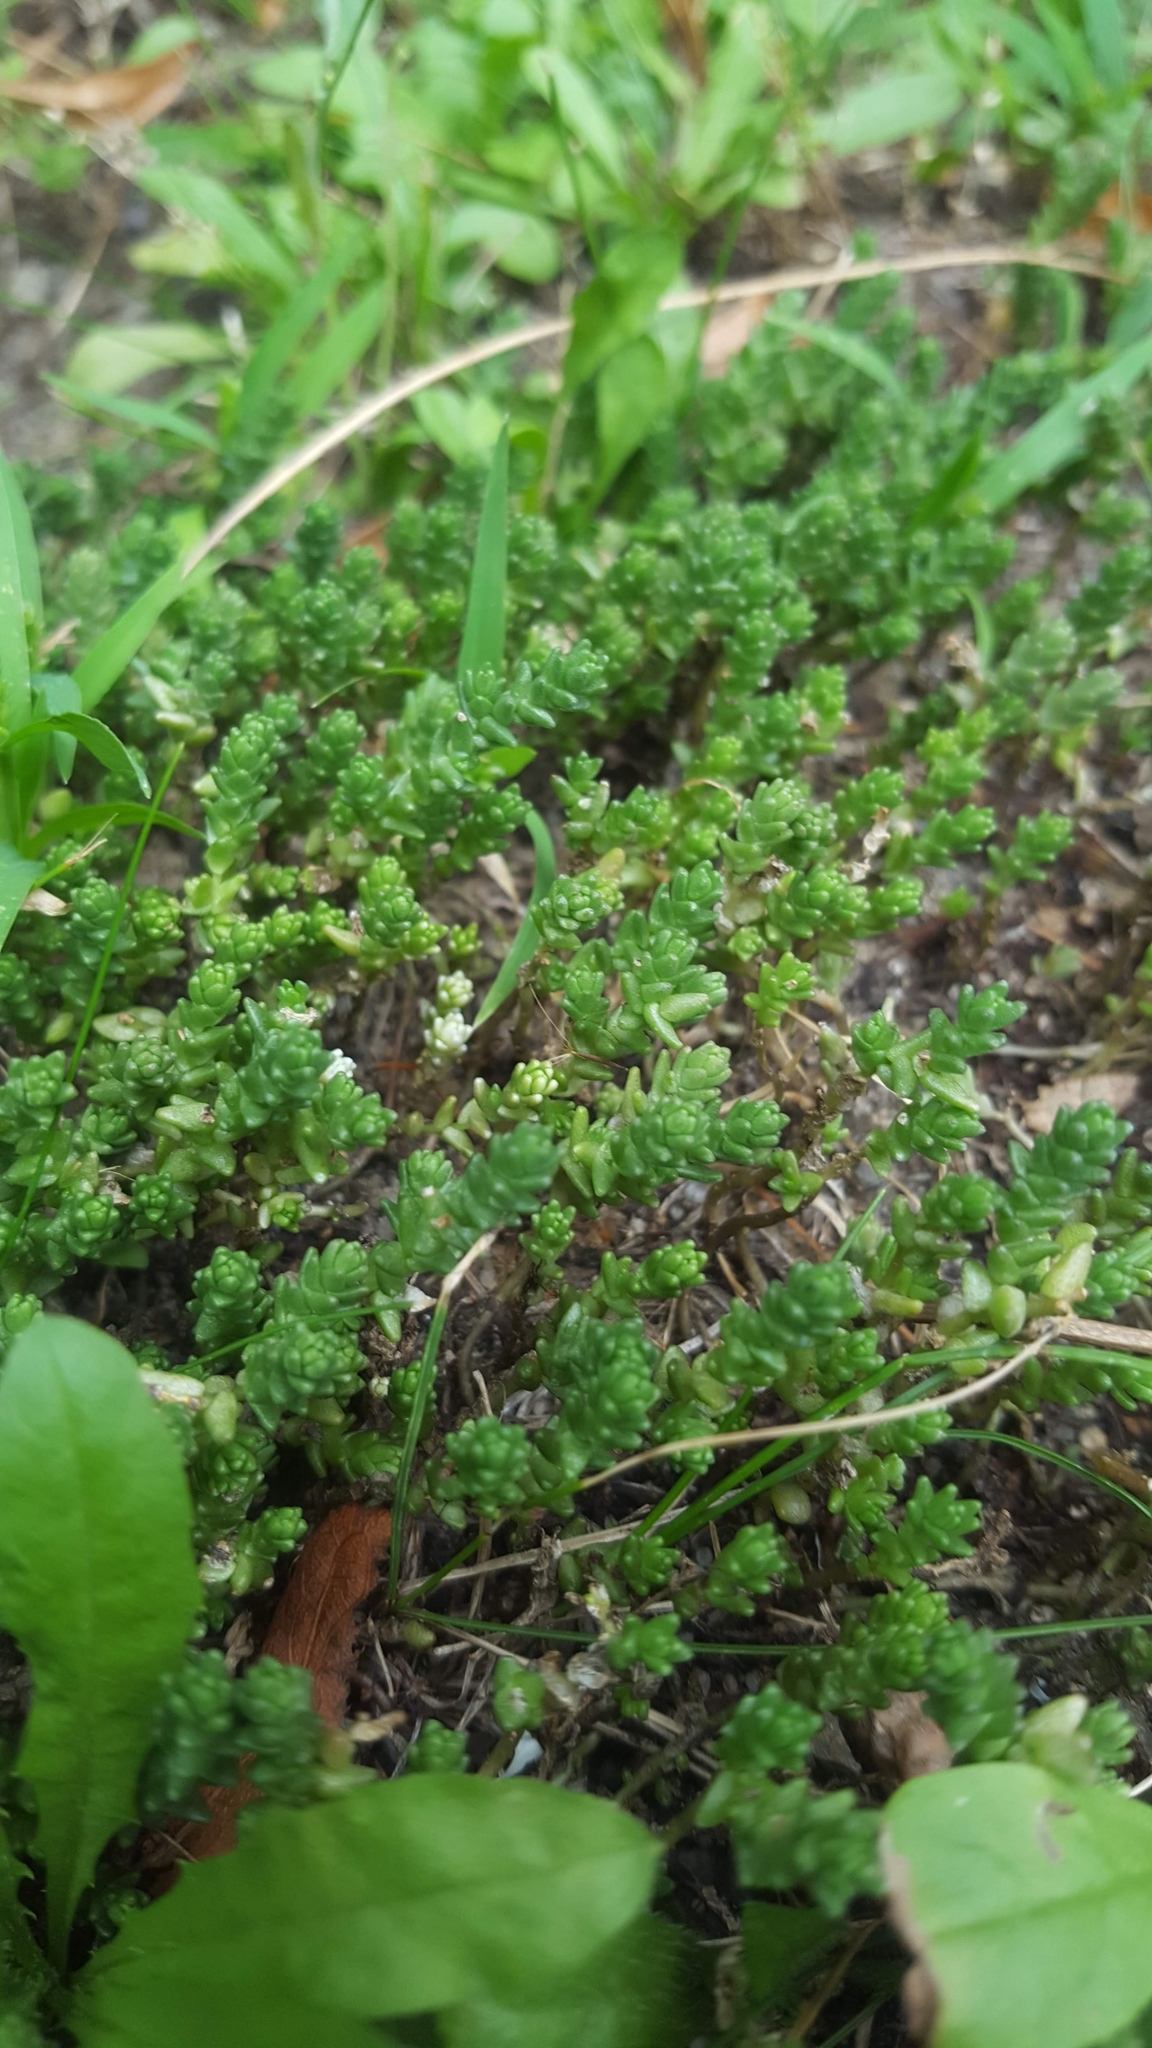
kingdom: Plantae
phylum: Tracheophyta
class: Magnoliopsida
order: Saxifragales
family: Crassulaceae
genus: Sedum
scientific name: Sedum acre
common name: Biting stonecrop
